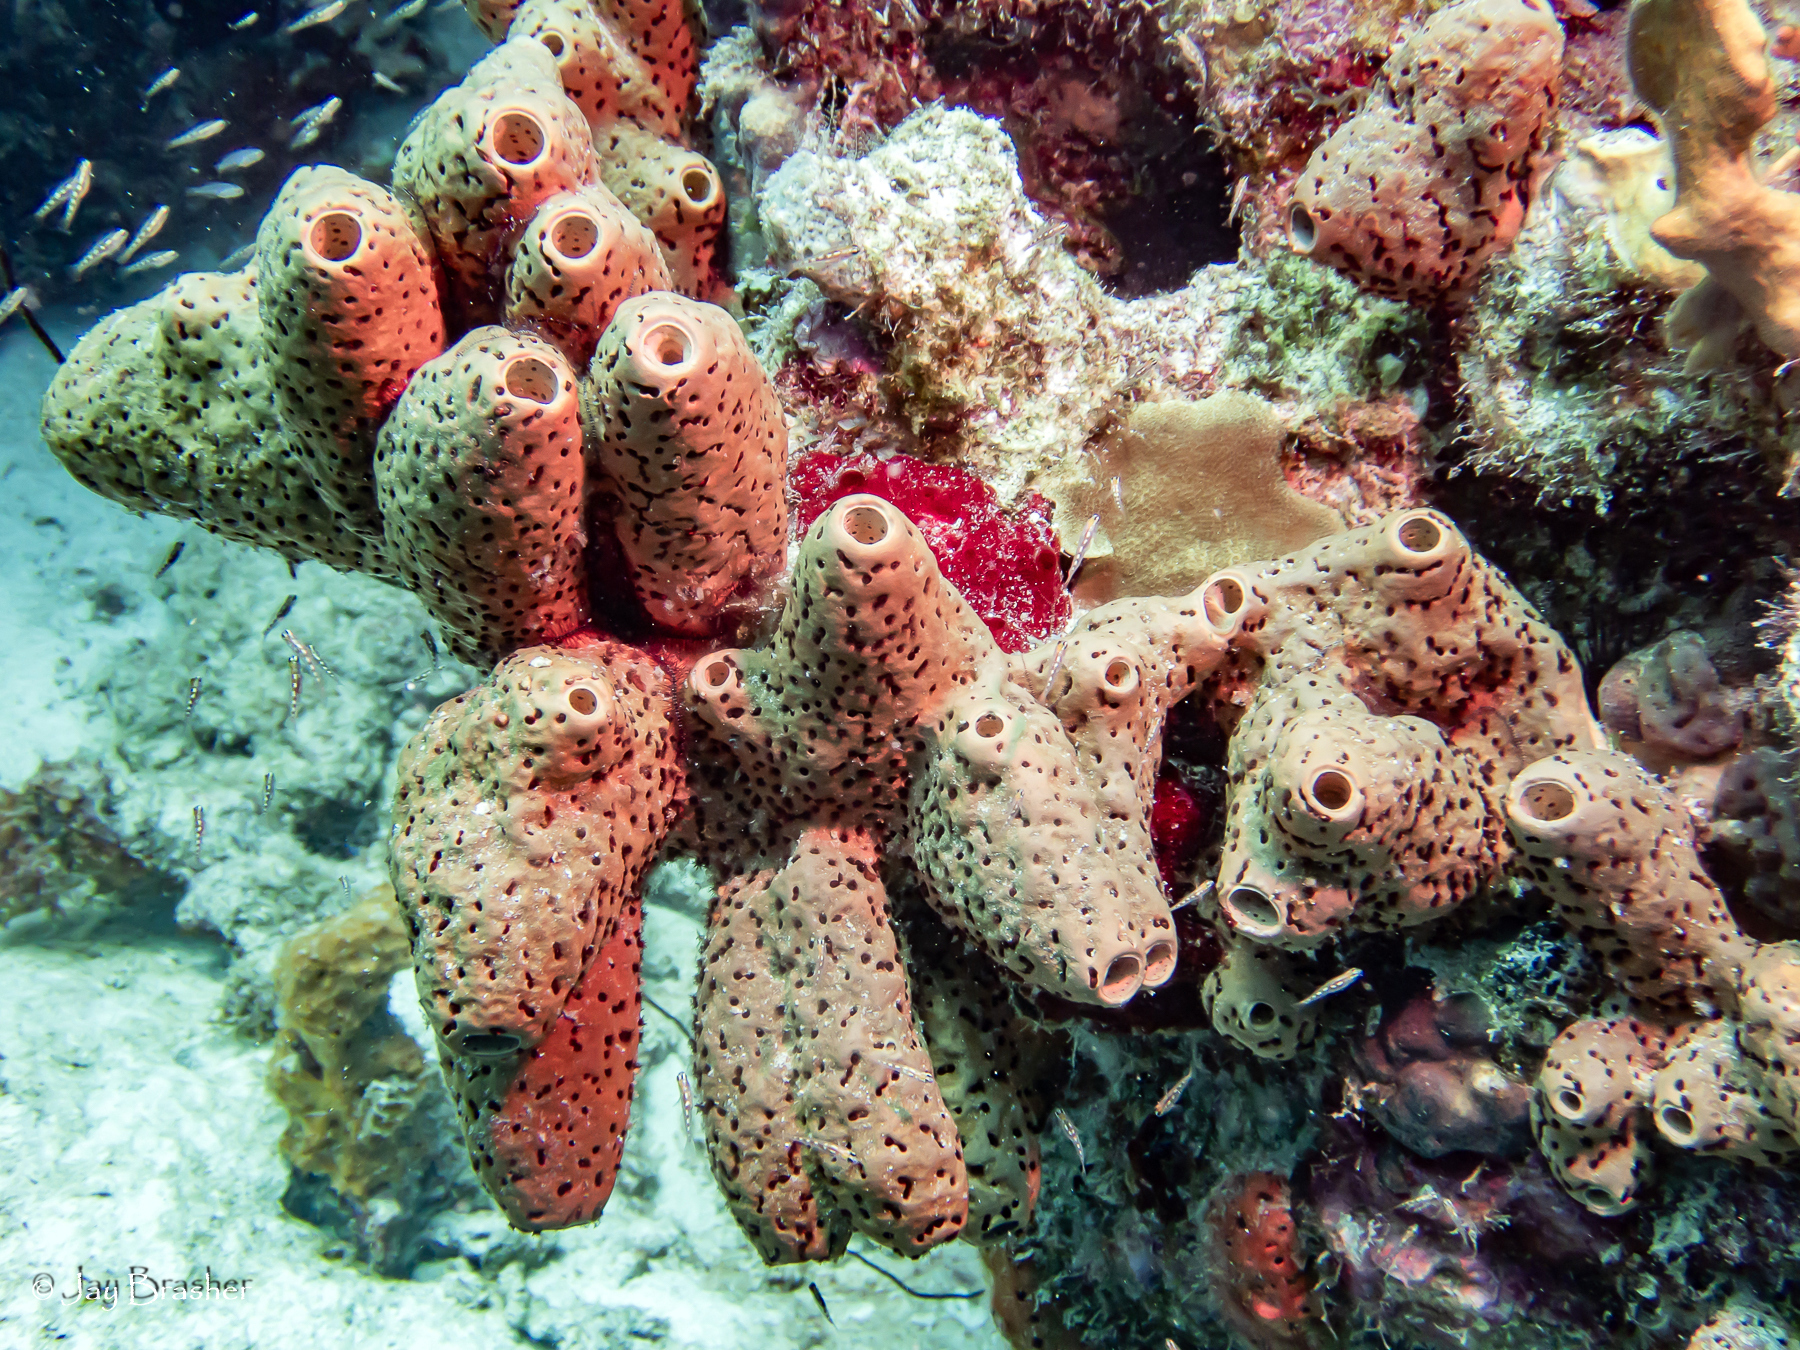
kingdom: Animalia
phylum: Porifera
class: Demospongiae
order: Agelasida
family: Agelasidae
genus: Agelas
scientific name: Agelas conifera
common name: Brown tube sponge
